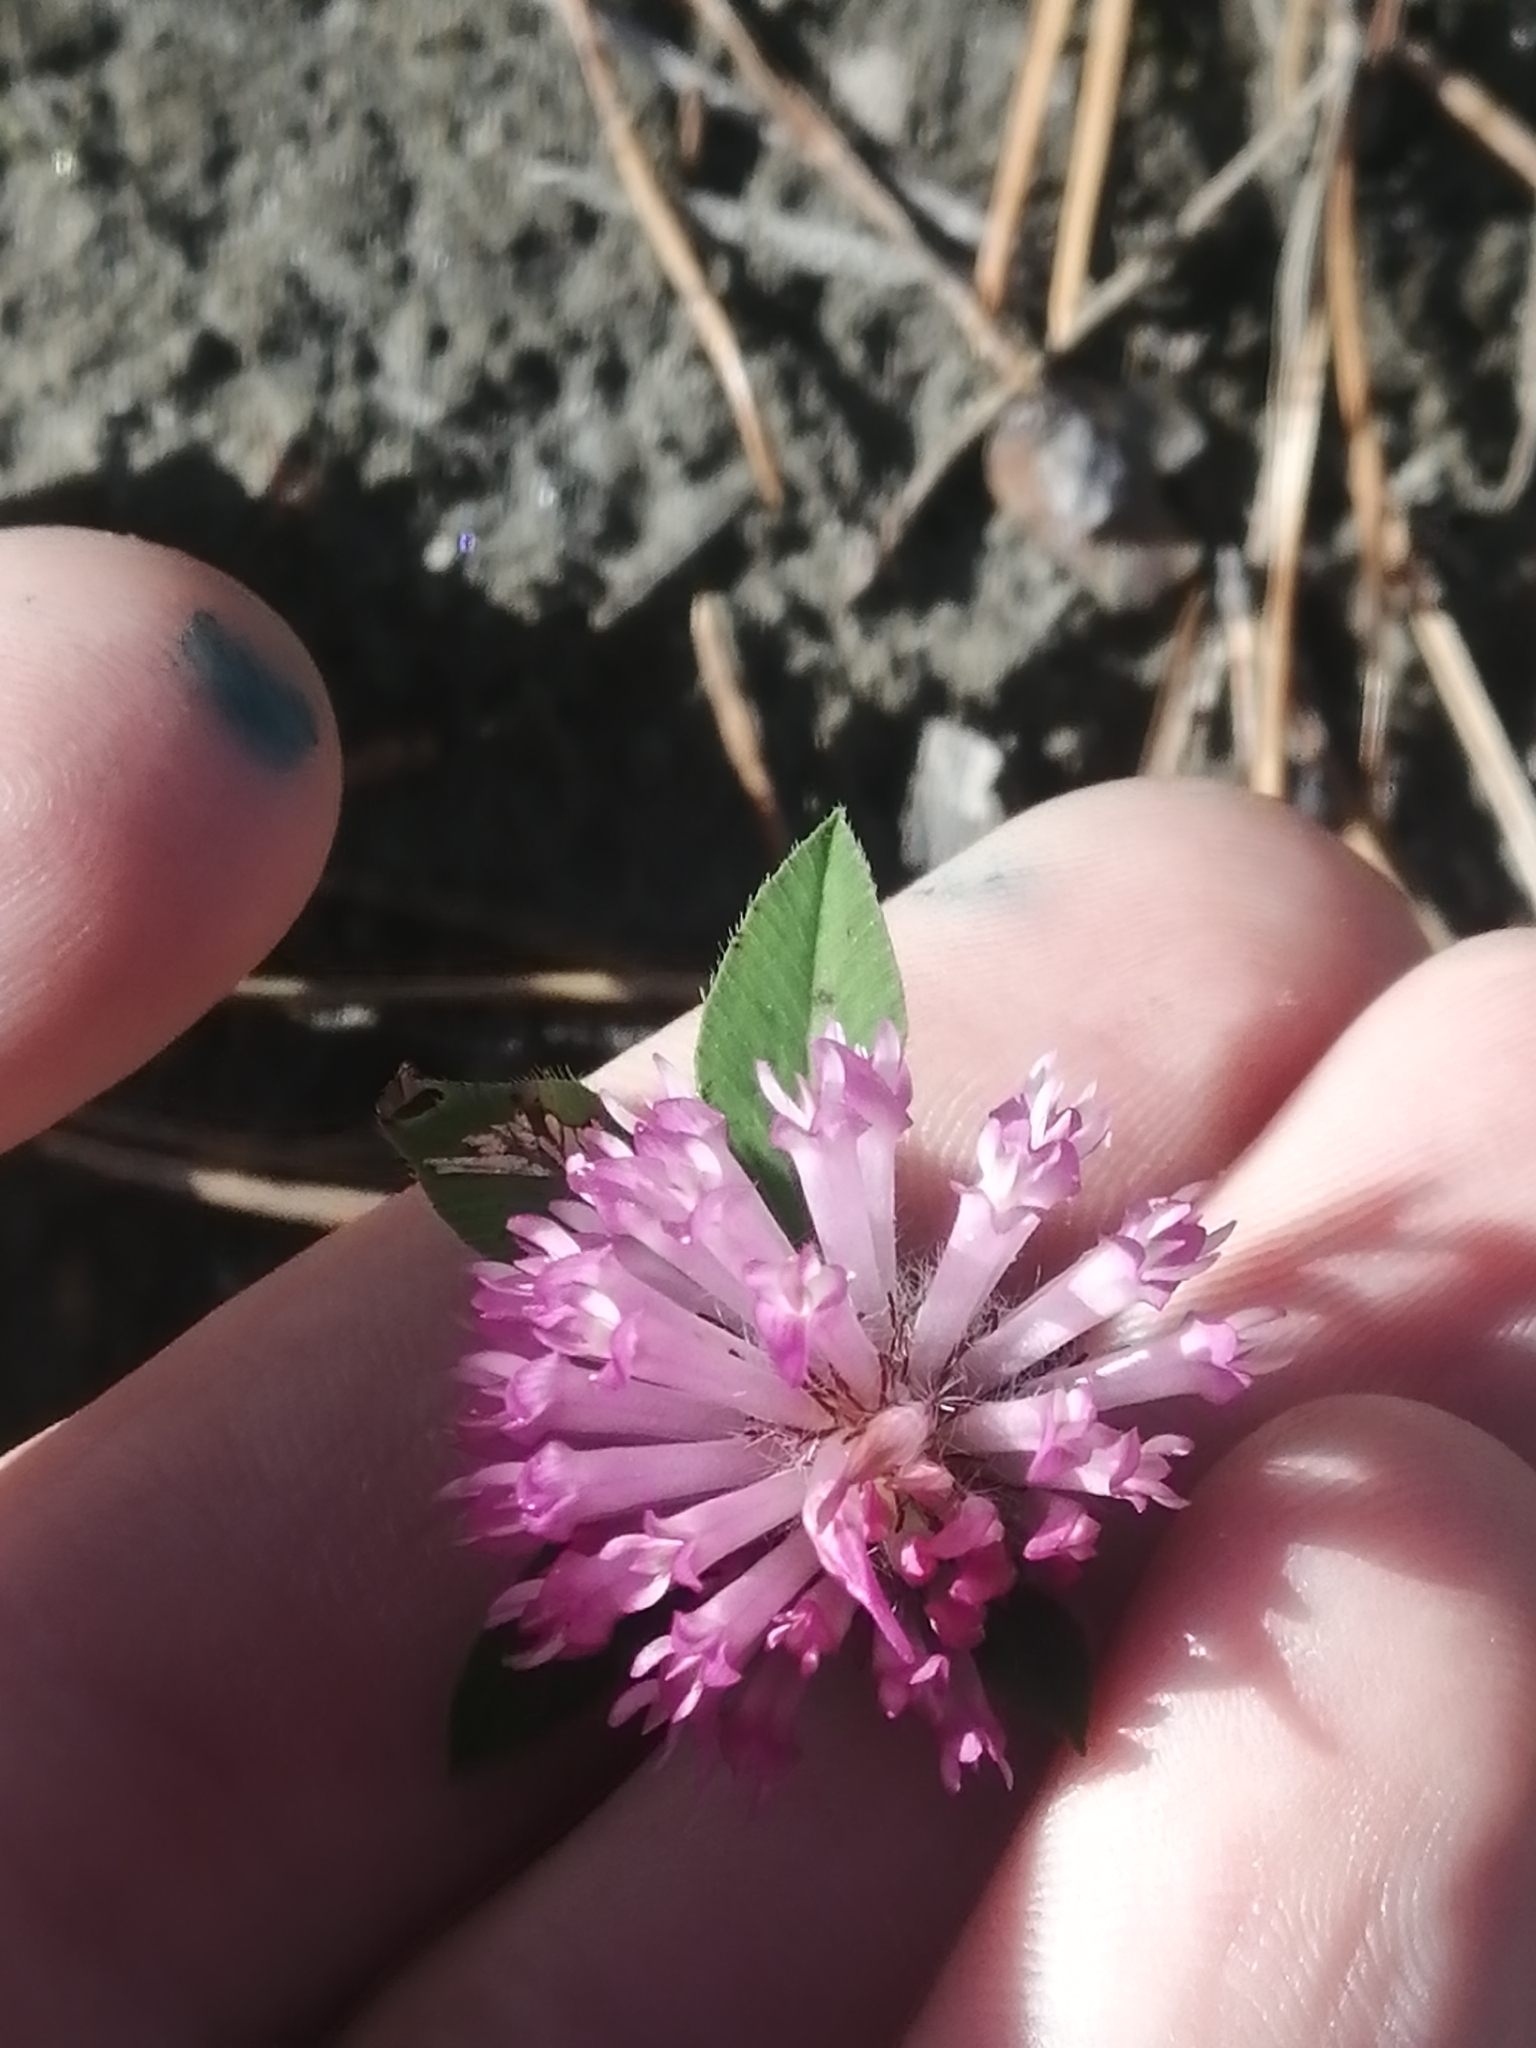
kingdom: Plantae
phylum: Tracheophyta
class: Magnoliopsida
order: Fabales
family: Fabaceae
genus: Trifolium
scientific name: Trifolium pratense
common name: Red clover
